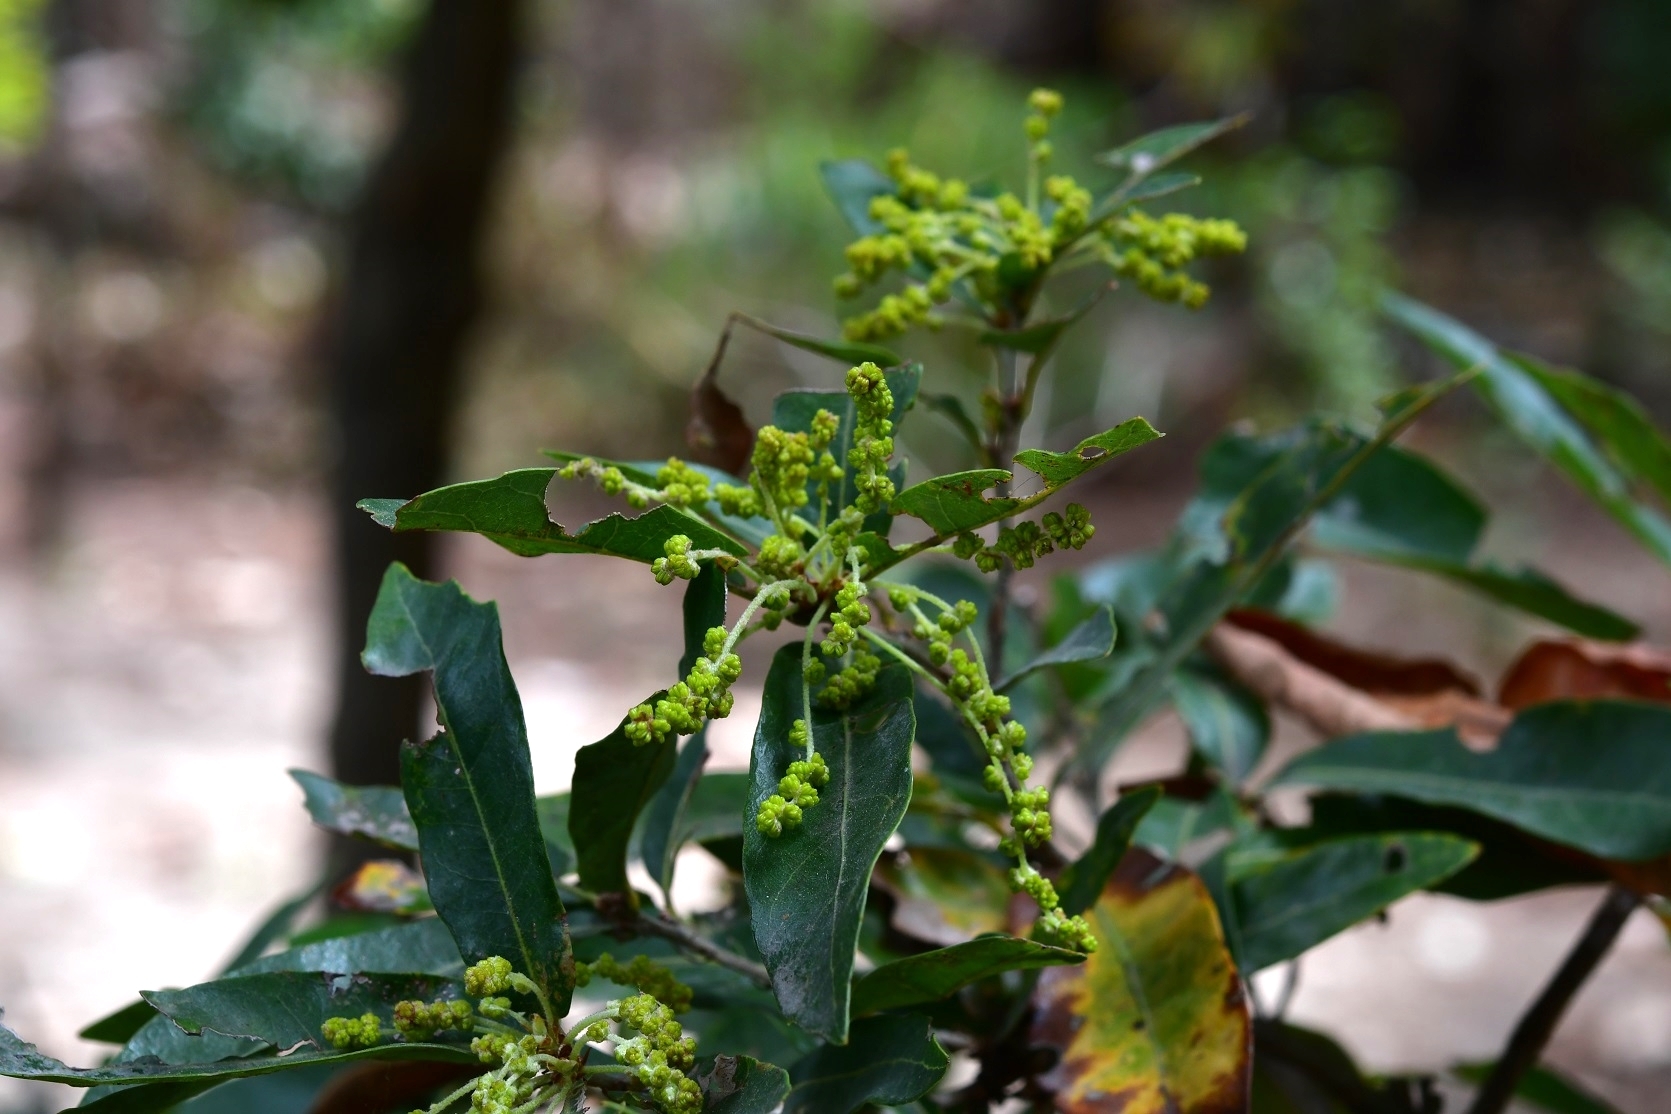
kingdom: Plantae
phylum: Tracheophyta
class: Magnoliopsida
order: Fagales
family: Fagaceae
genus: Quercus
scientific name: Quercus sebifera
